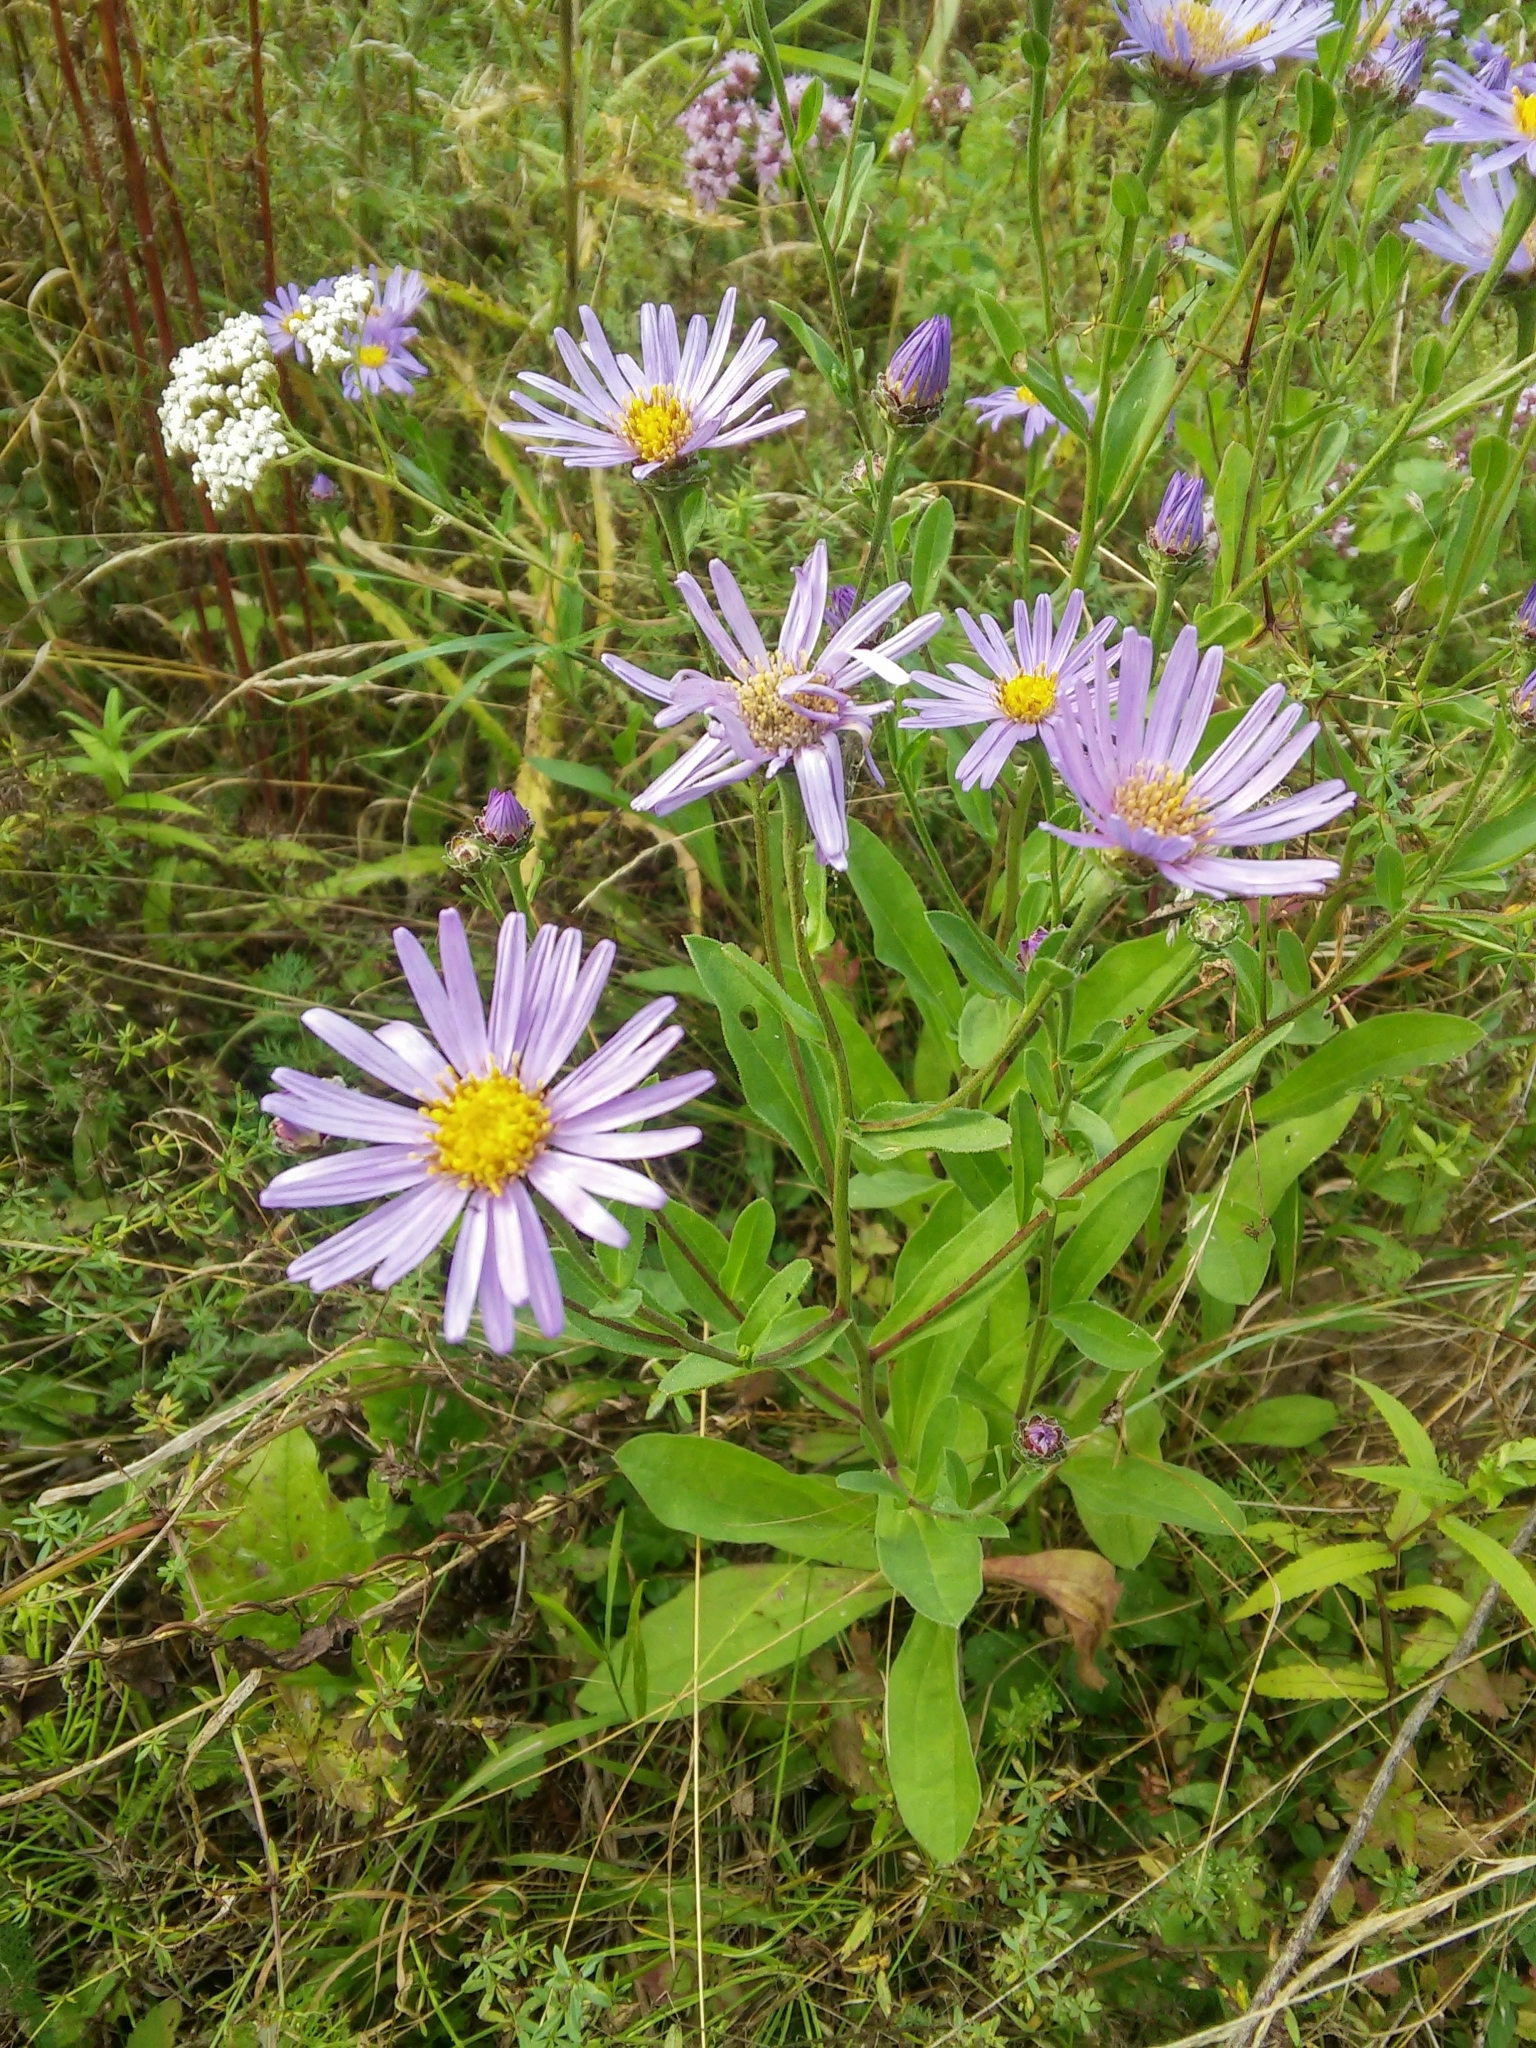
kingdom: Plantae
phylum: Tracheophyta
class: Magnoliopsida
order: Asterales
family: Asteraceae
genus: Aster
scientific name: Aster amellus
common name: European michaelmas daisy
